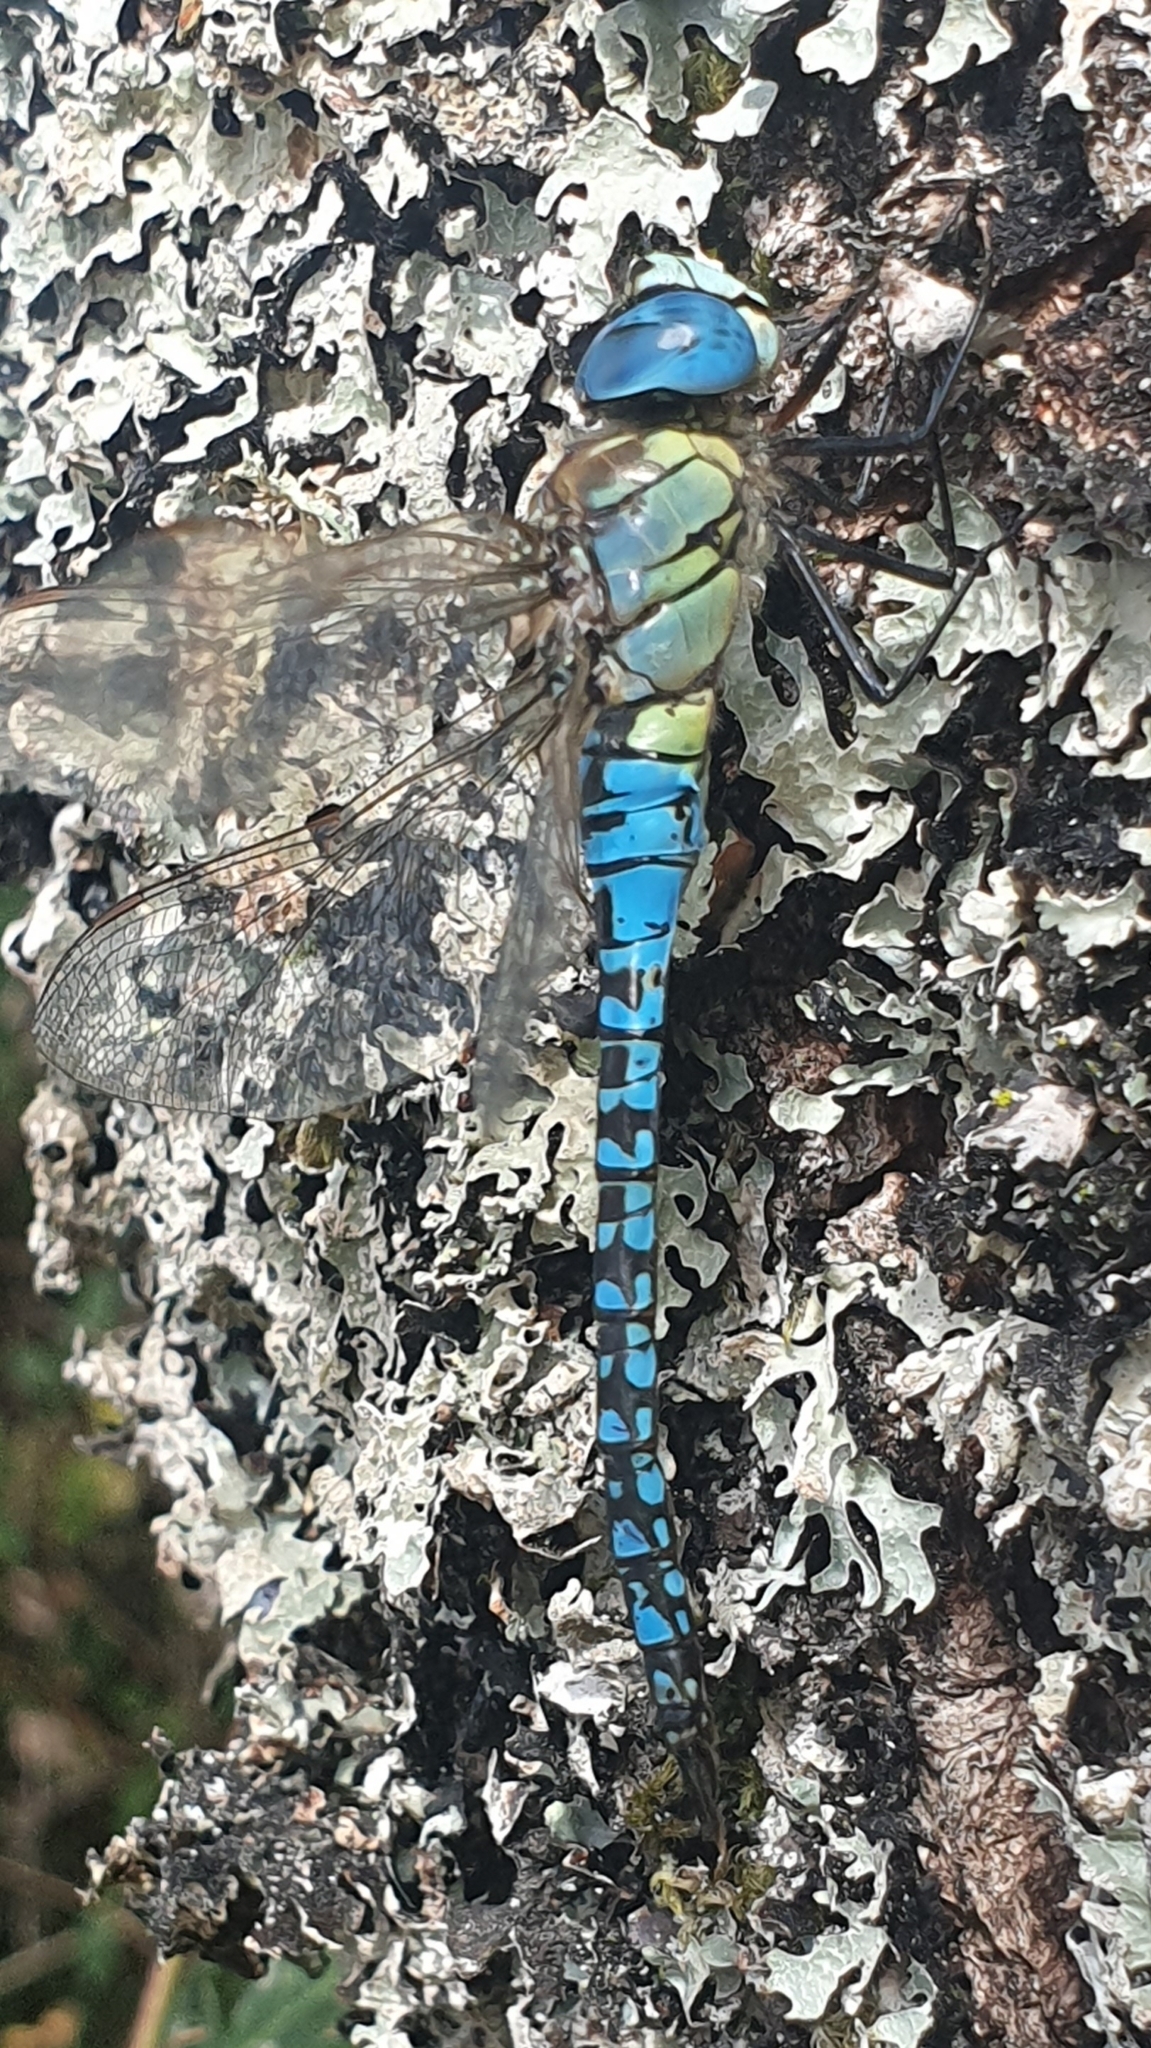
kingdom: Animalia
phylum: Arthropoda
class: Insecta
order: Odonata
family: Aeshnidae
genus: Aeshna
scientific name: Aeshna affinis
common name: Southern migrant hawker
